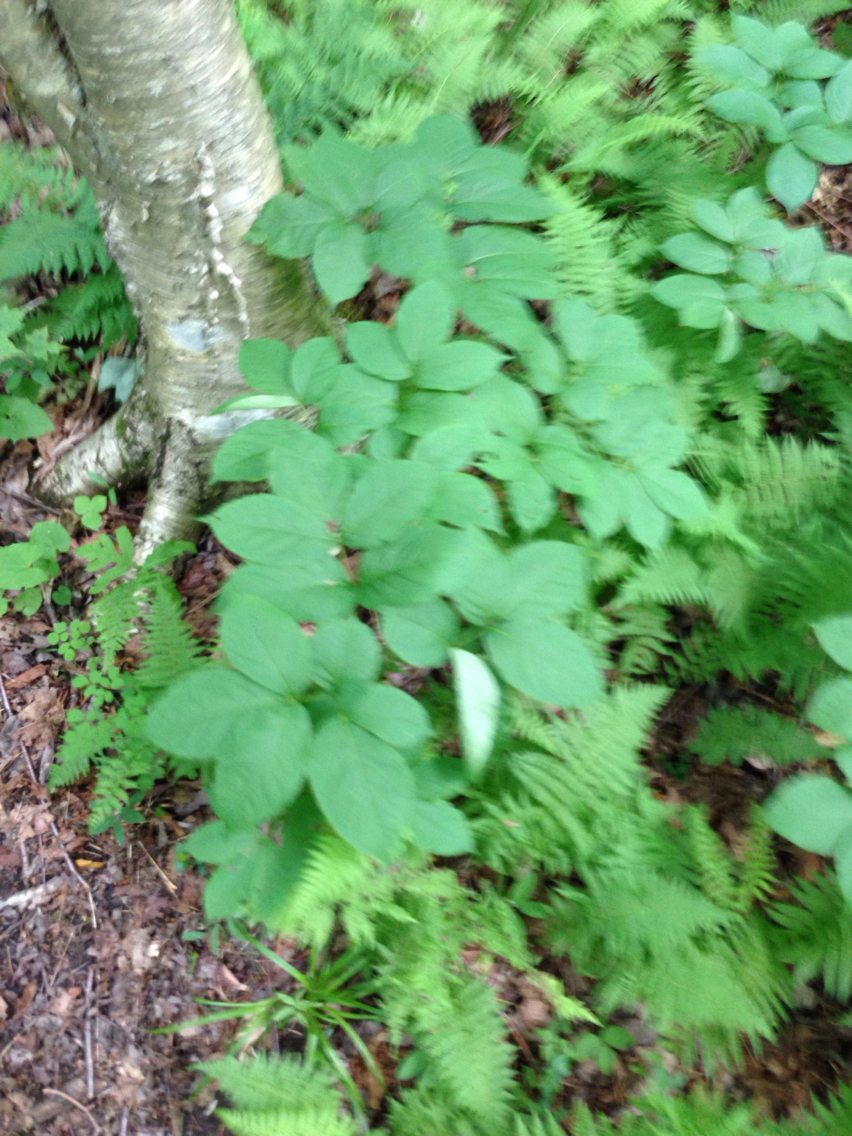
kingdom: Plantae
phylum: Tracheophyta
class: Magnoliopsida
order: Apiales
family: Araliaceae
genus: Aralia
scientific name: Aralia nudicaulis
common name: Wild sarsaparilla
